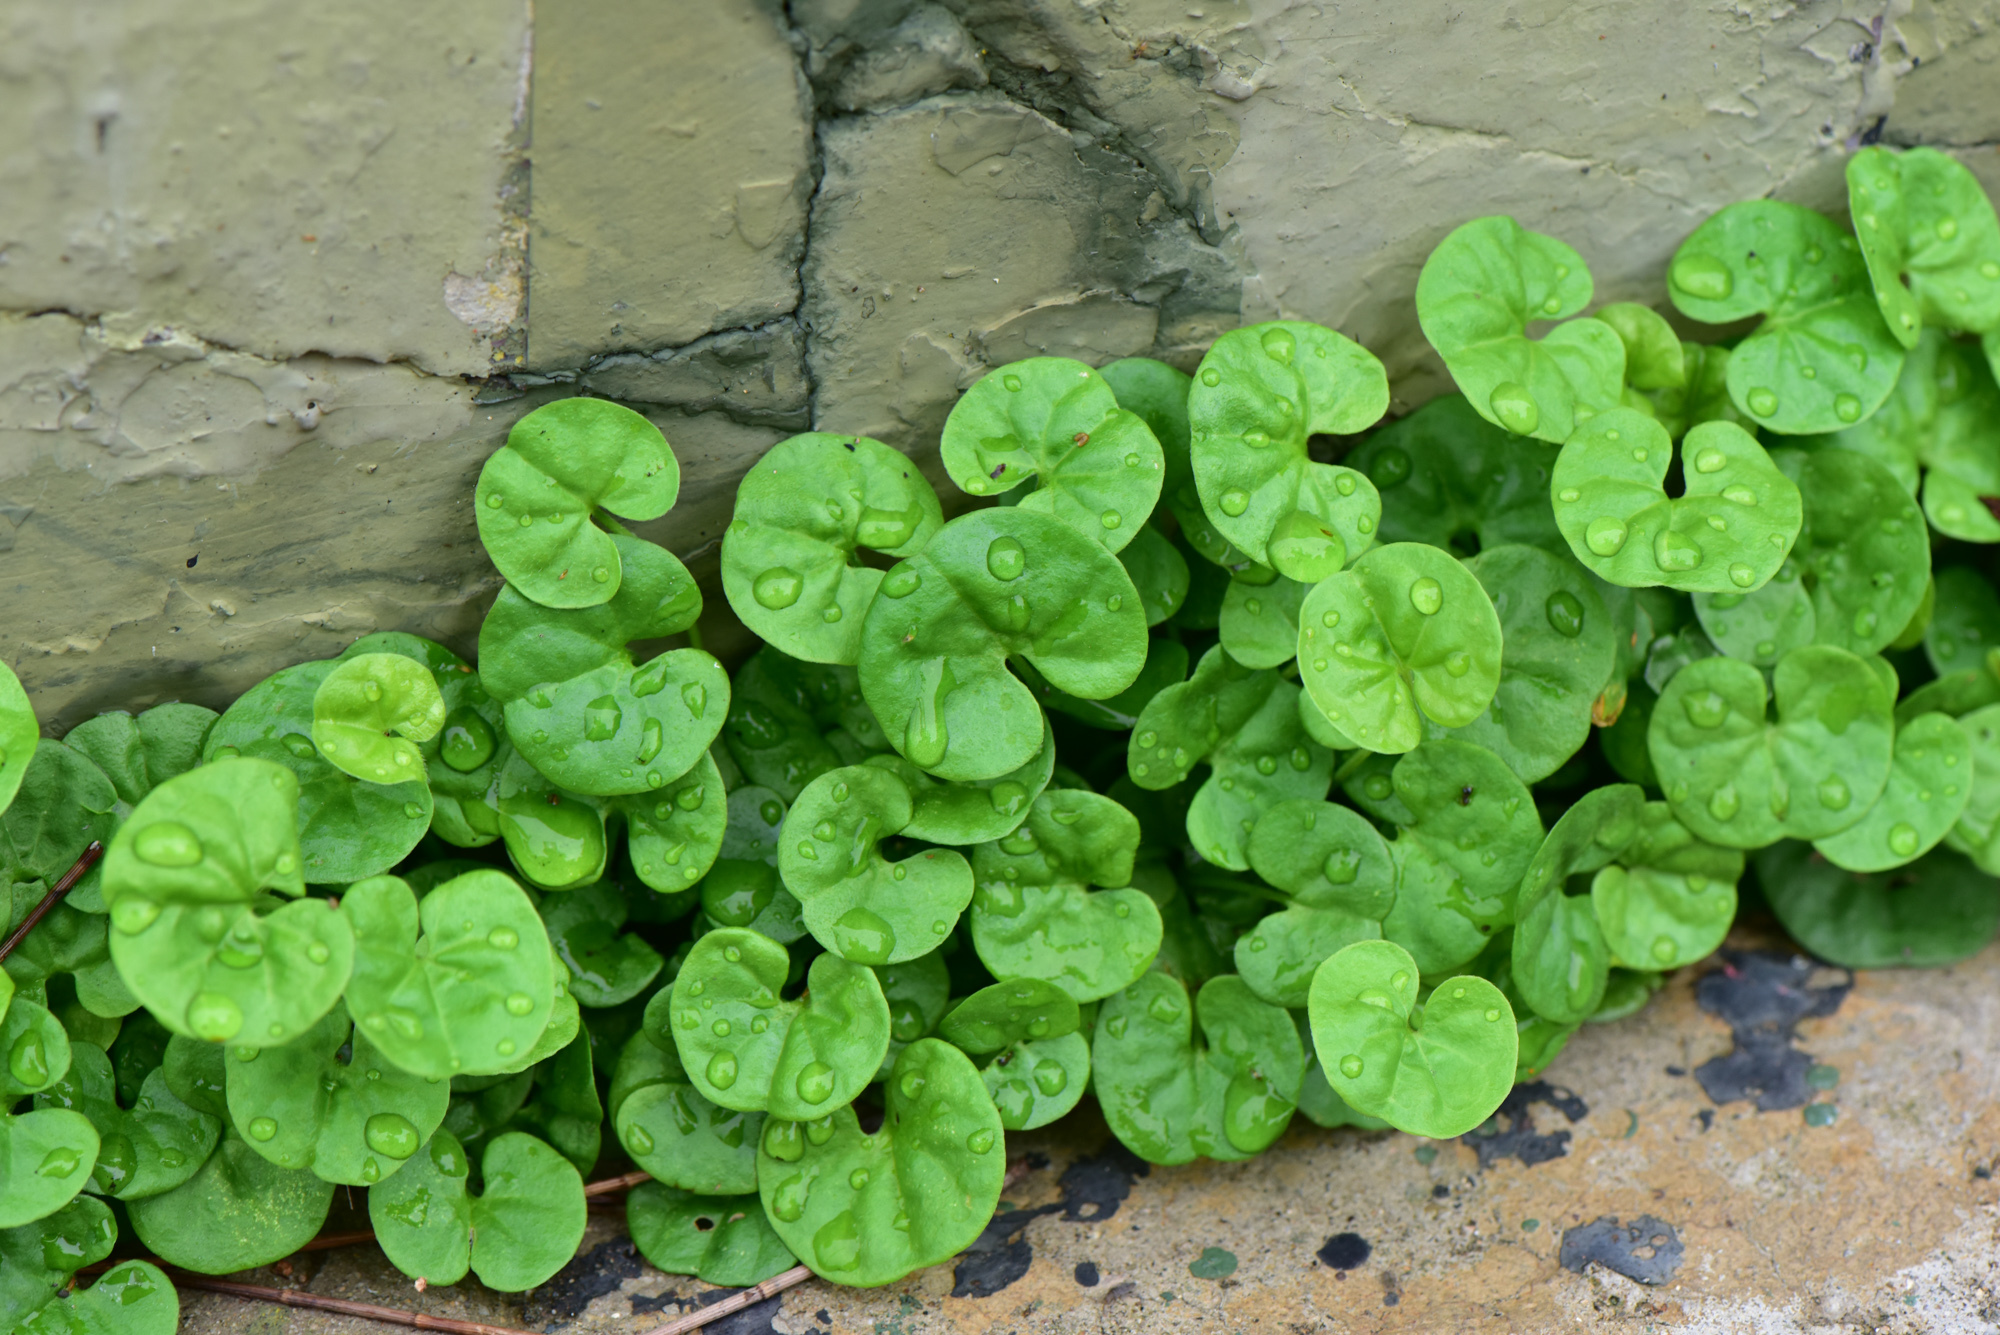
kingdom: Plantae
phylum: Tracheophyta
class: Magnoliopsida
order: Solanales
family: Convolvulaceae
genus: Dichondra
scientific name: Dichondra micrantha
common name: Kidneyweed
